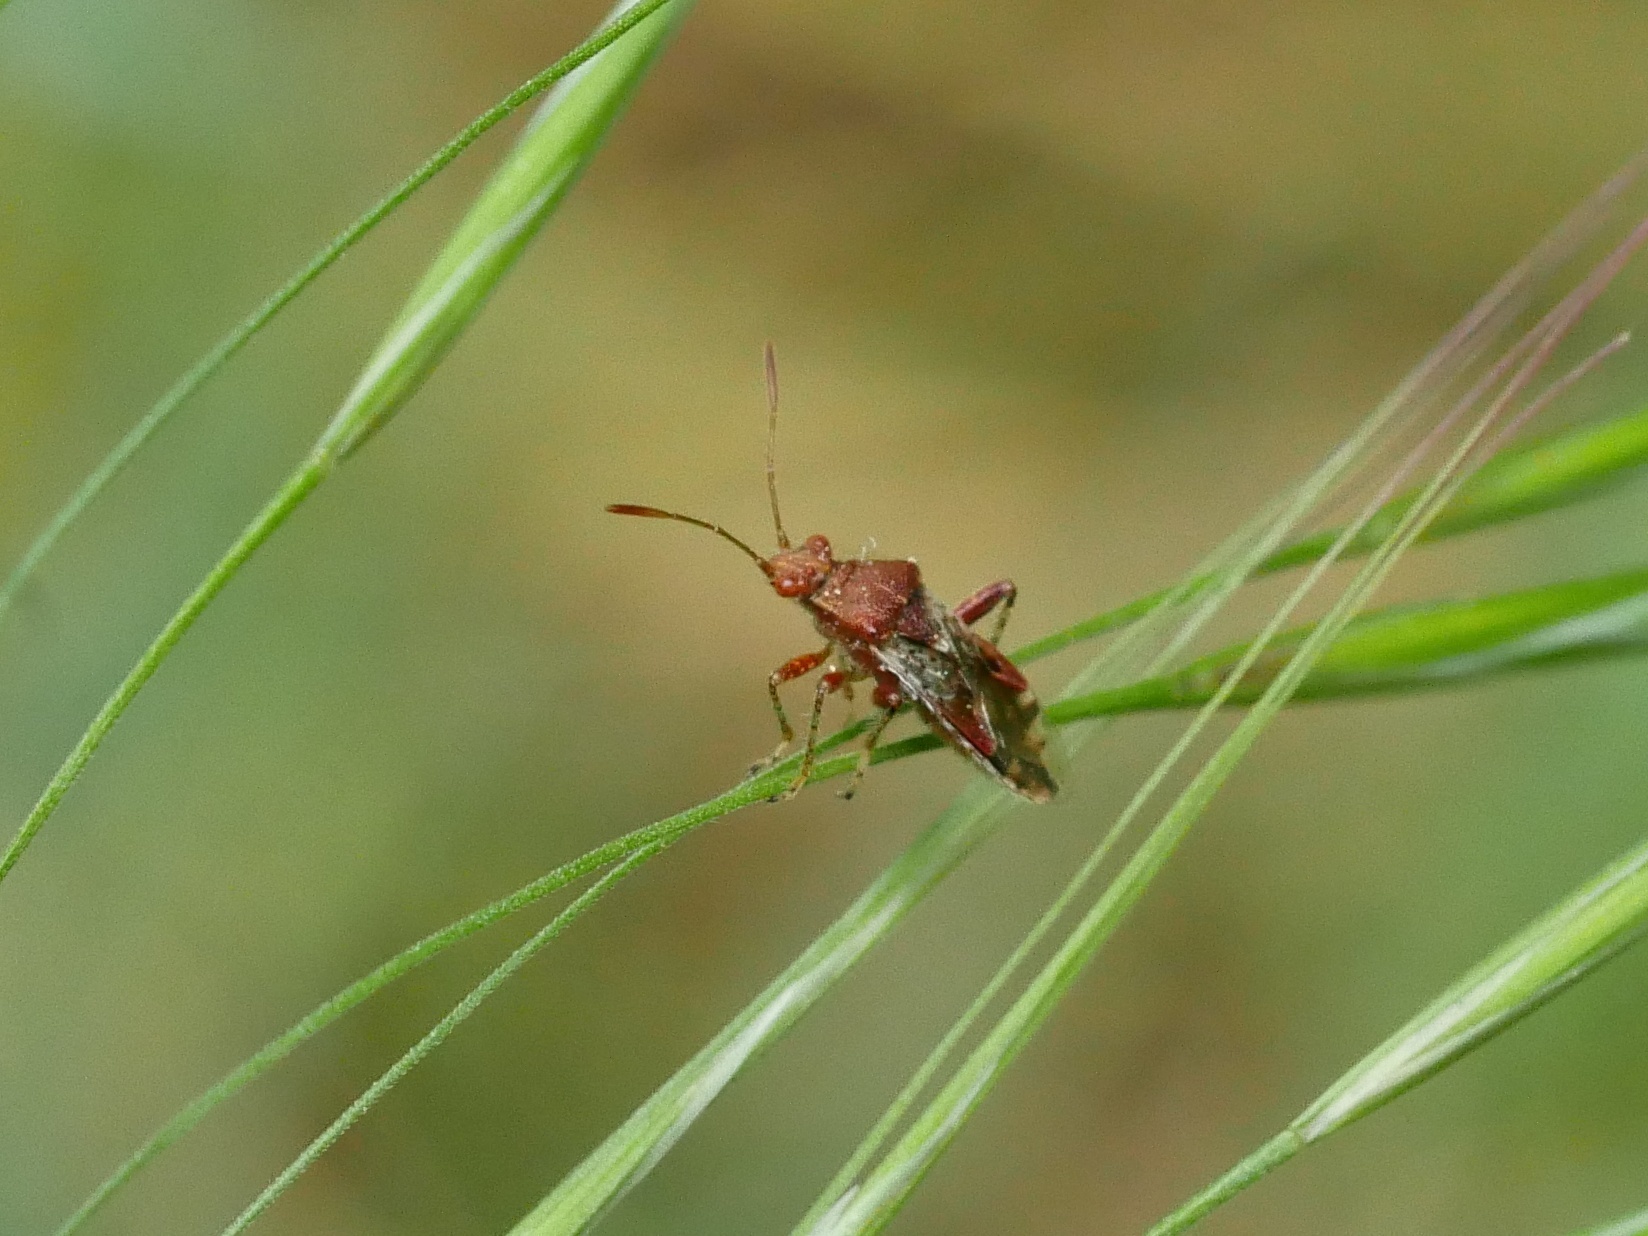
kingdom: Animalia
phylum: Arthropoda
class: Insecta
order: Hemiptera
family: Rhopalidae
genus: Rhopalus
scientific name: Rhopalus subrufus
